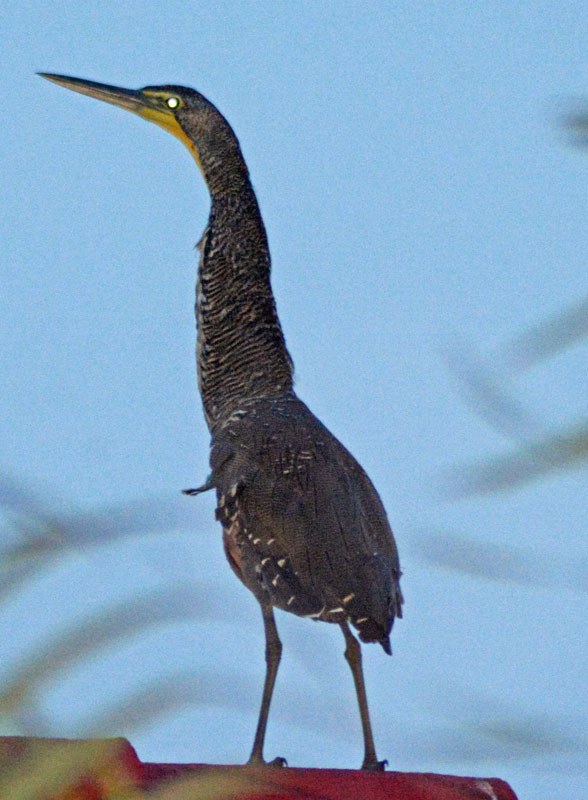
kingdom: Animalia
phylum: Chordata
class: Aves
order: Pelecaniformes
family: Ardeidae
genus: Tigrisoma
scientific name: Tigrisoma mexicanum
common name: Bare-throated tiger-heron
